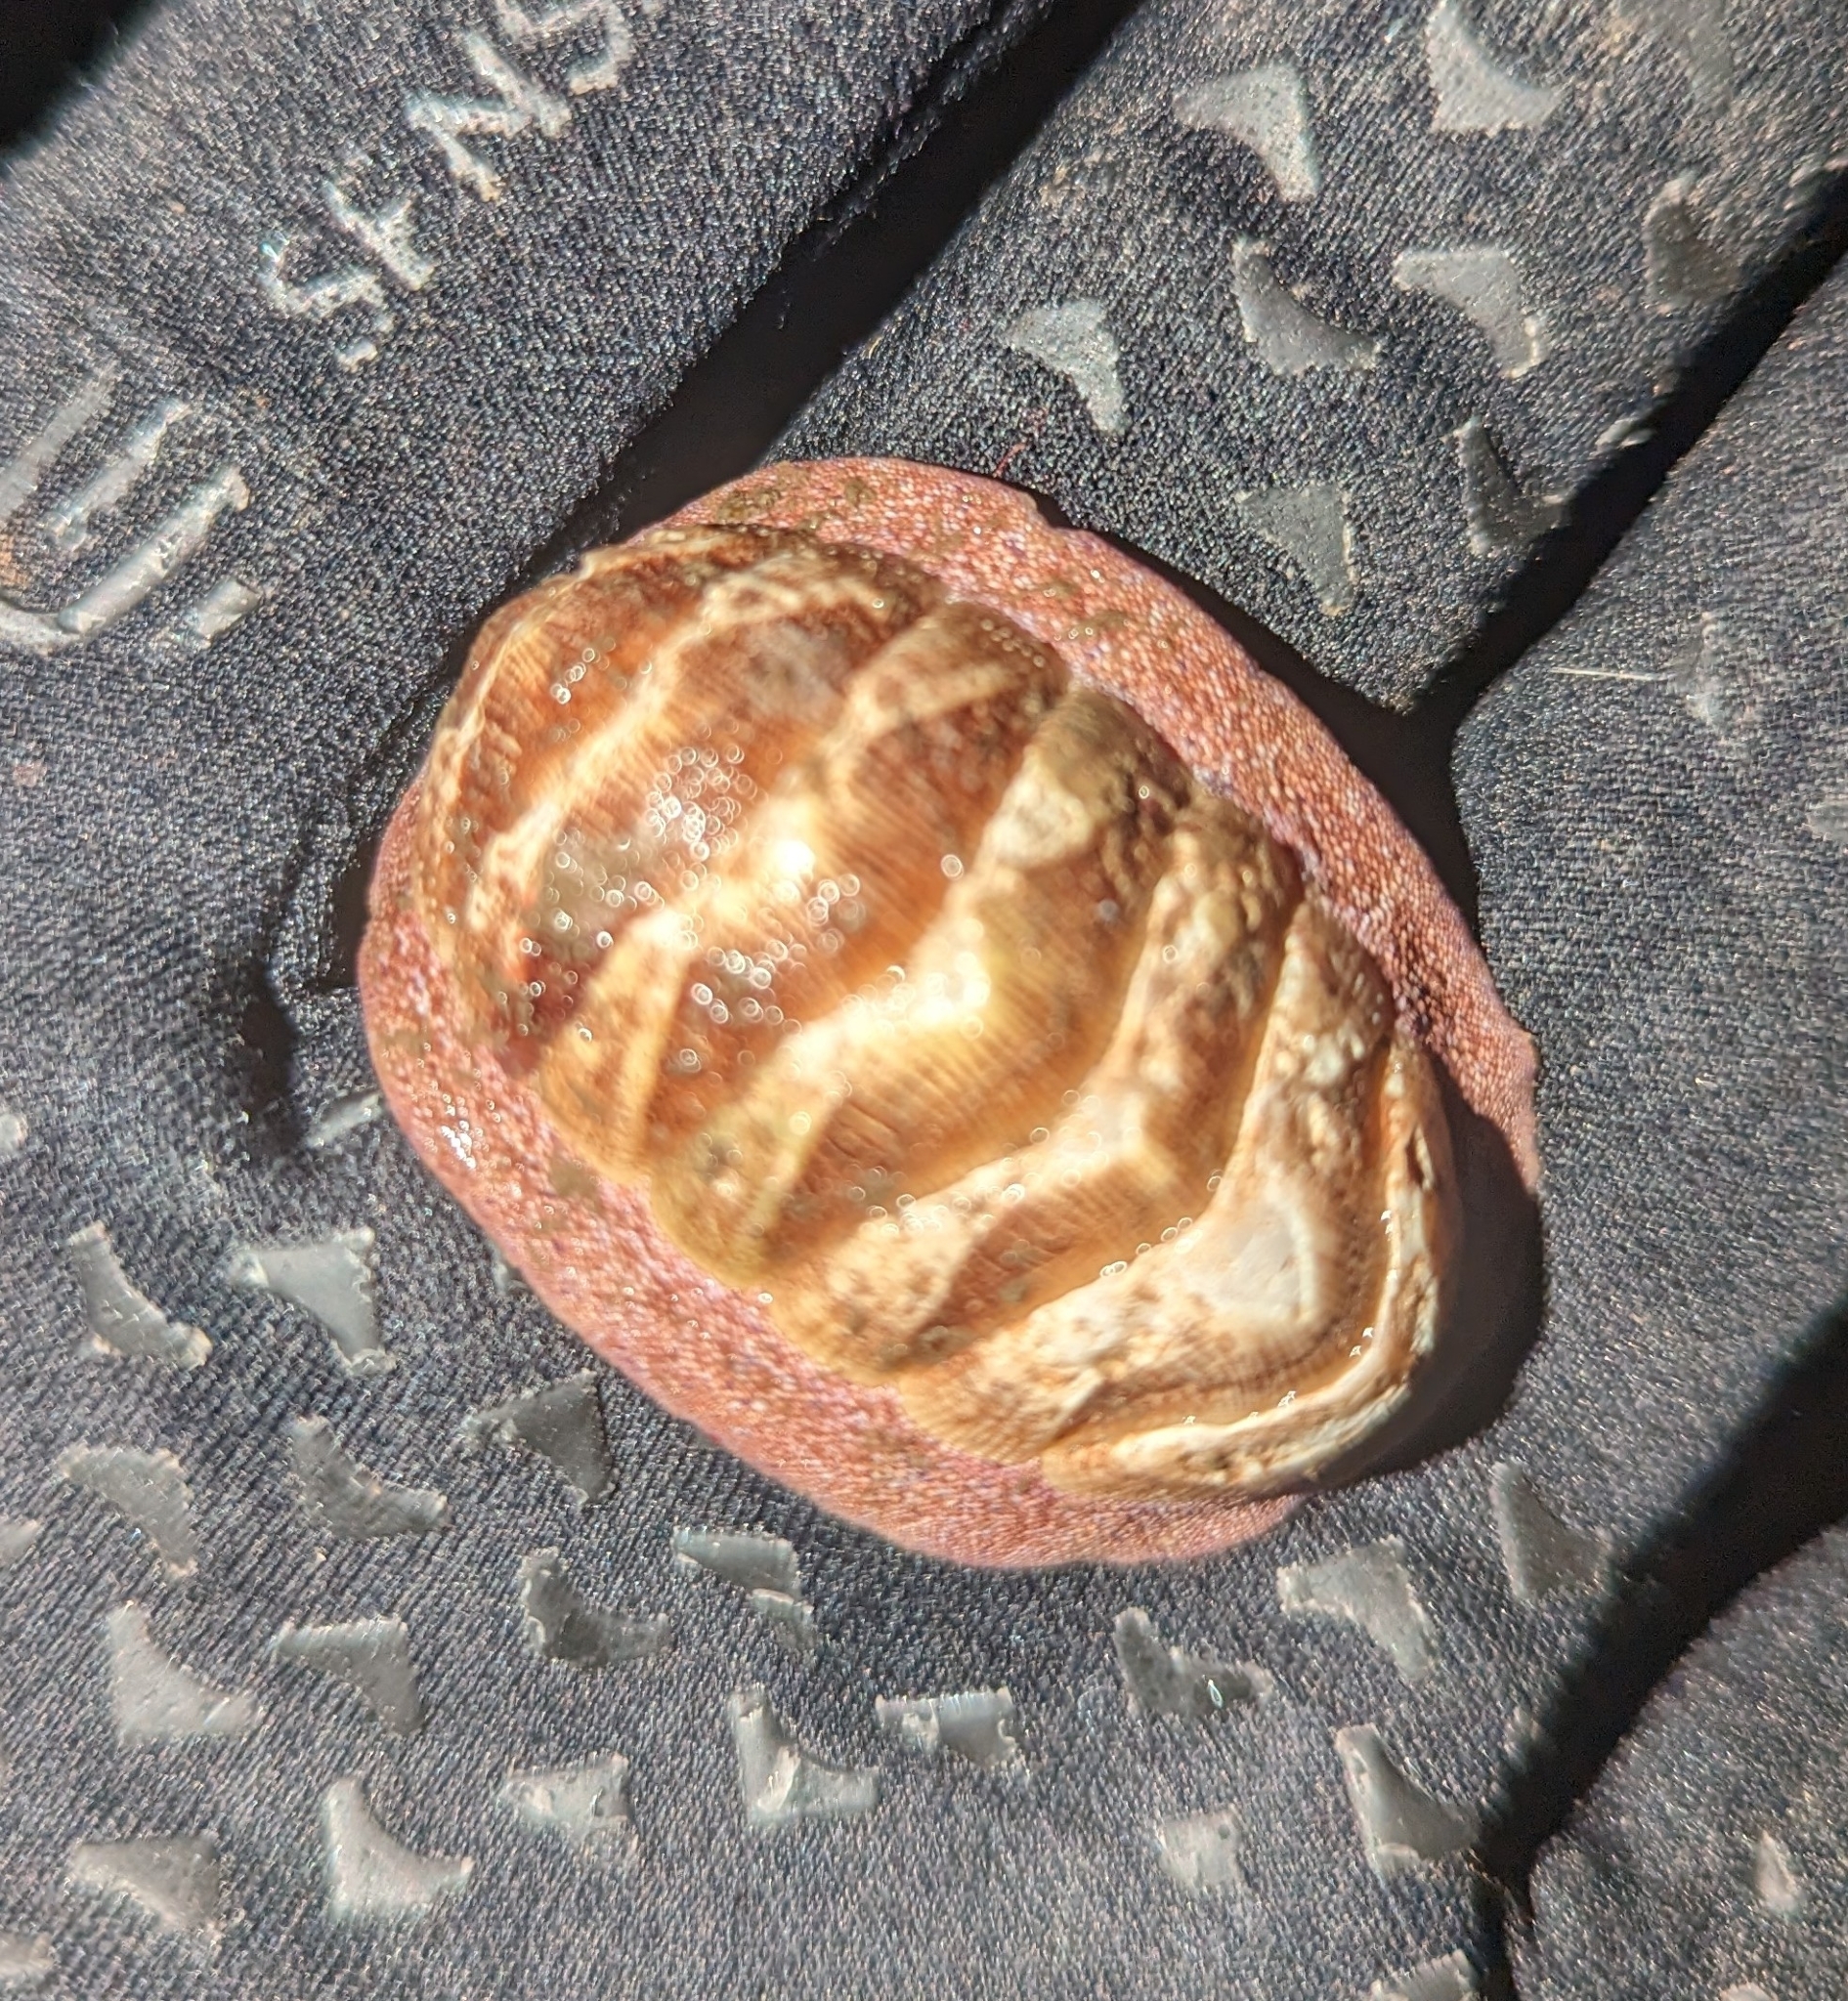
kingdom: Animalia
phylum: Mollusca
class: Polyplacophora
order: Chitonida
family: Ischnochitonidae
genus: Lepidozona
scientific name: Lepidozona mertensii
